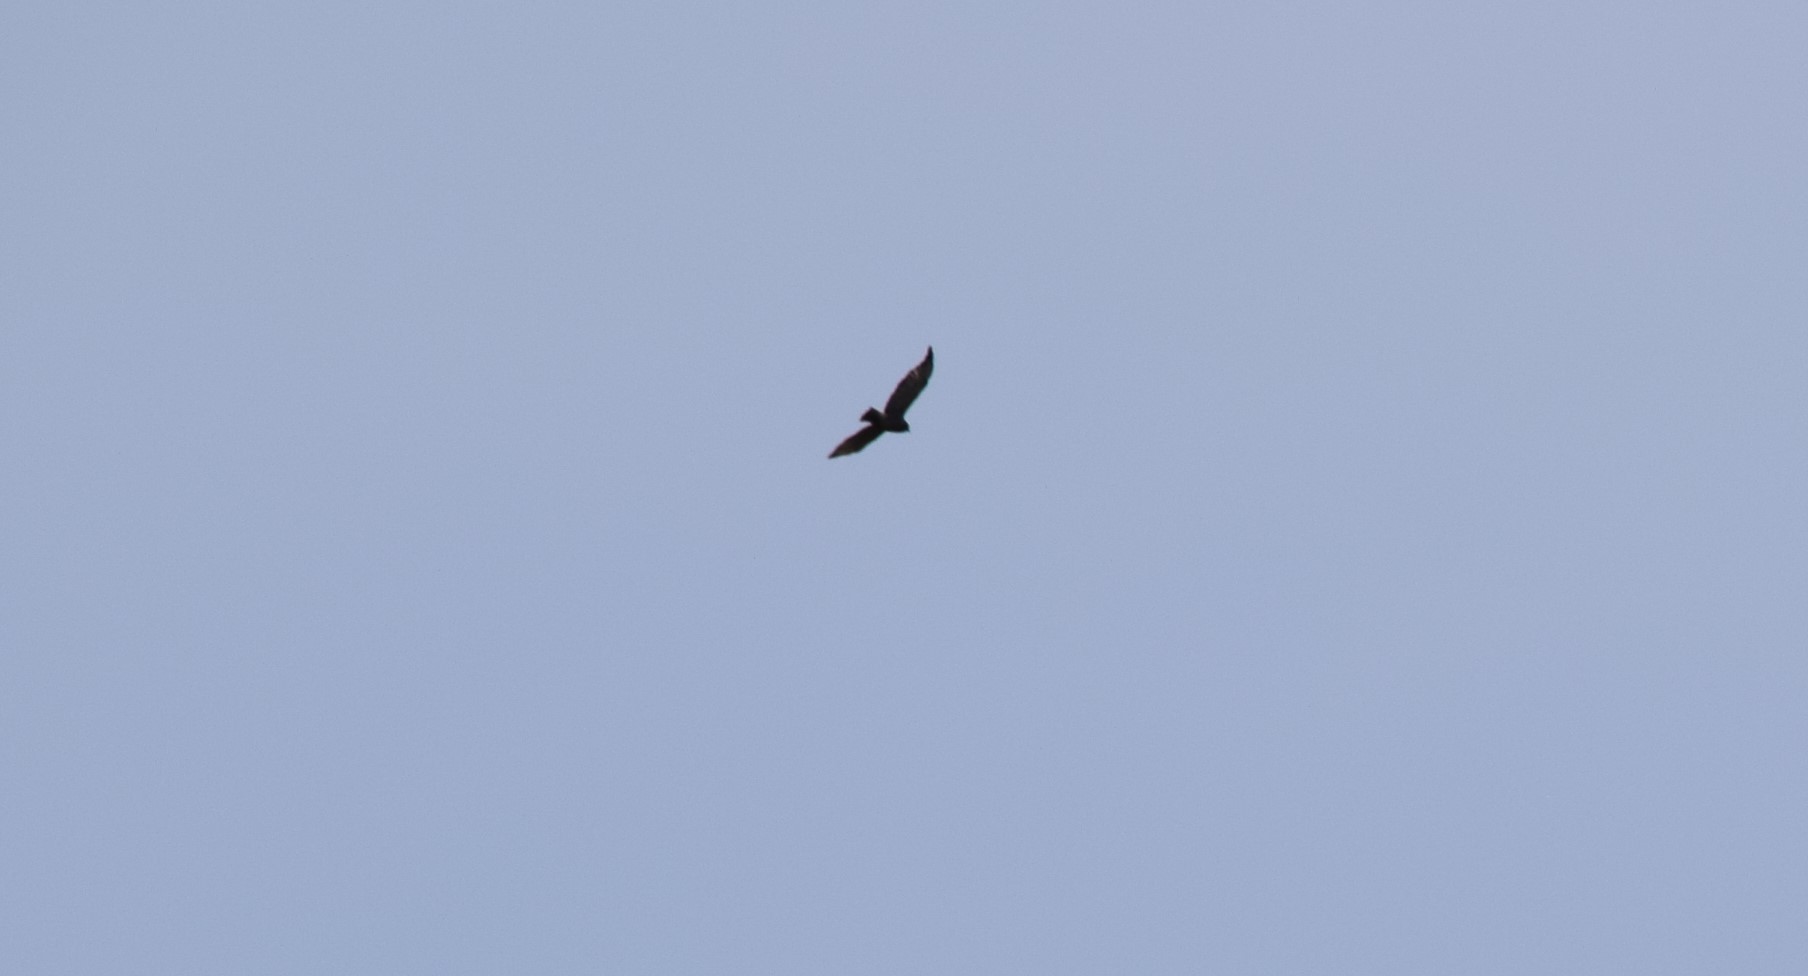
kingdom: Animalia
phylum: Chordata
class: Aves
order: Accipitriformes
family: Accipitridae
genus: Buteo
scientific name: Buteo platypterus
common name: Broad-winged hawk
